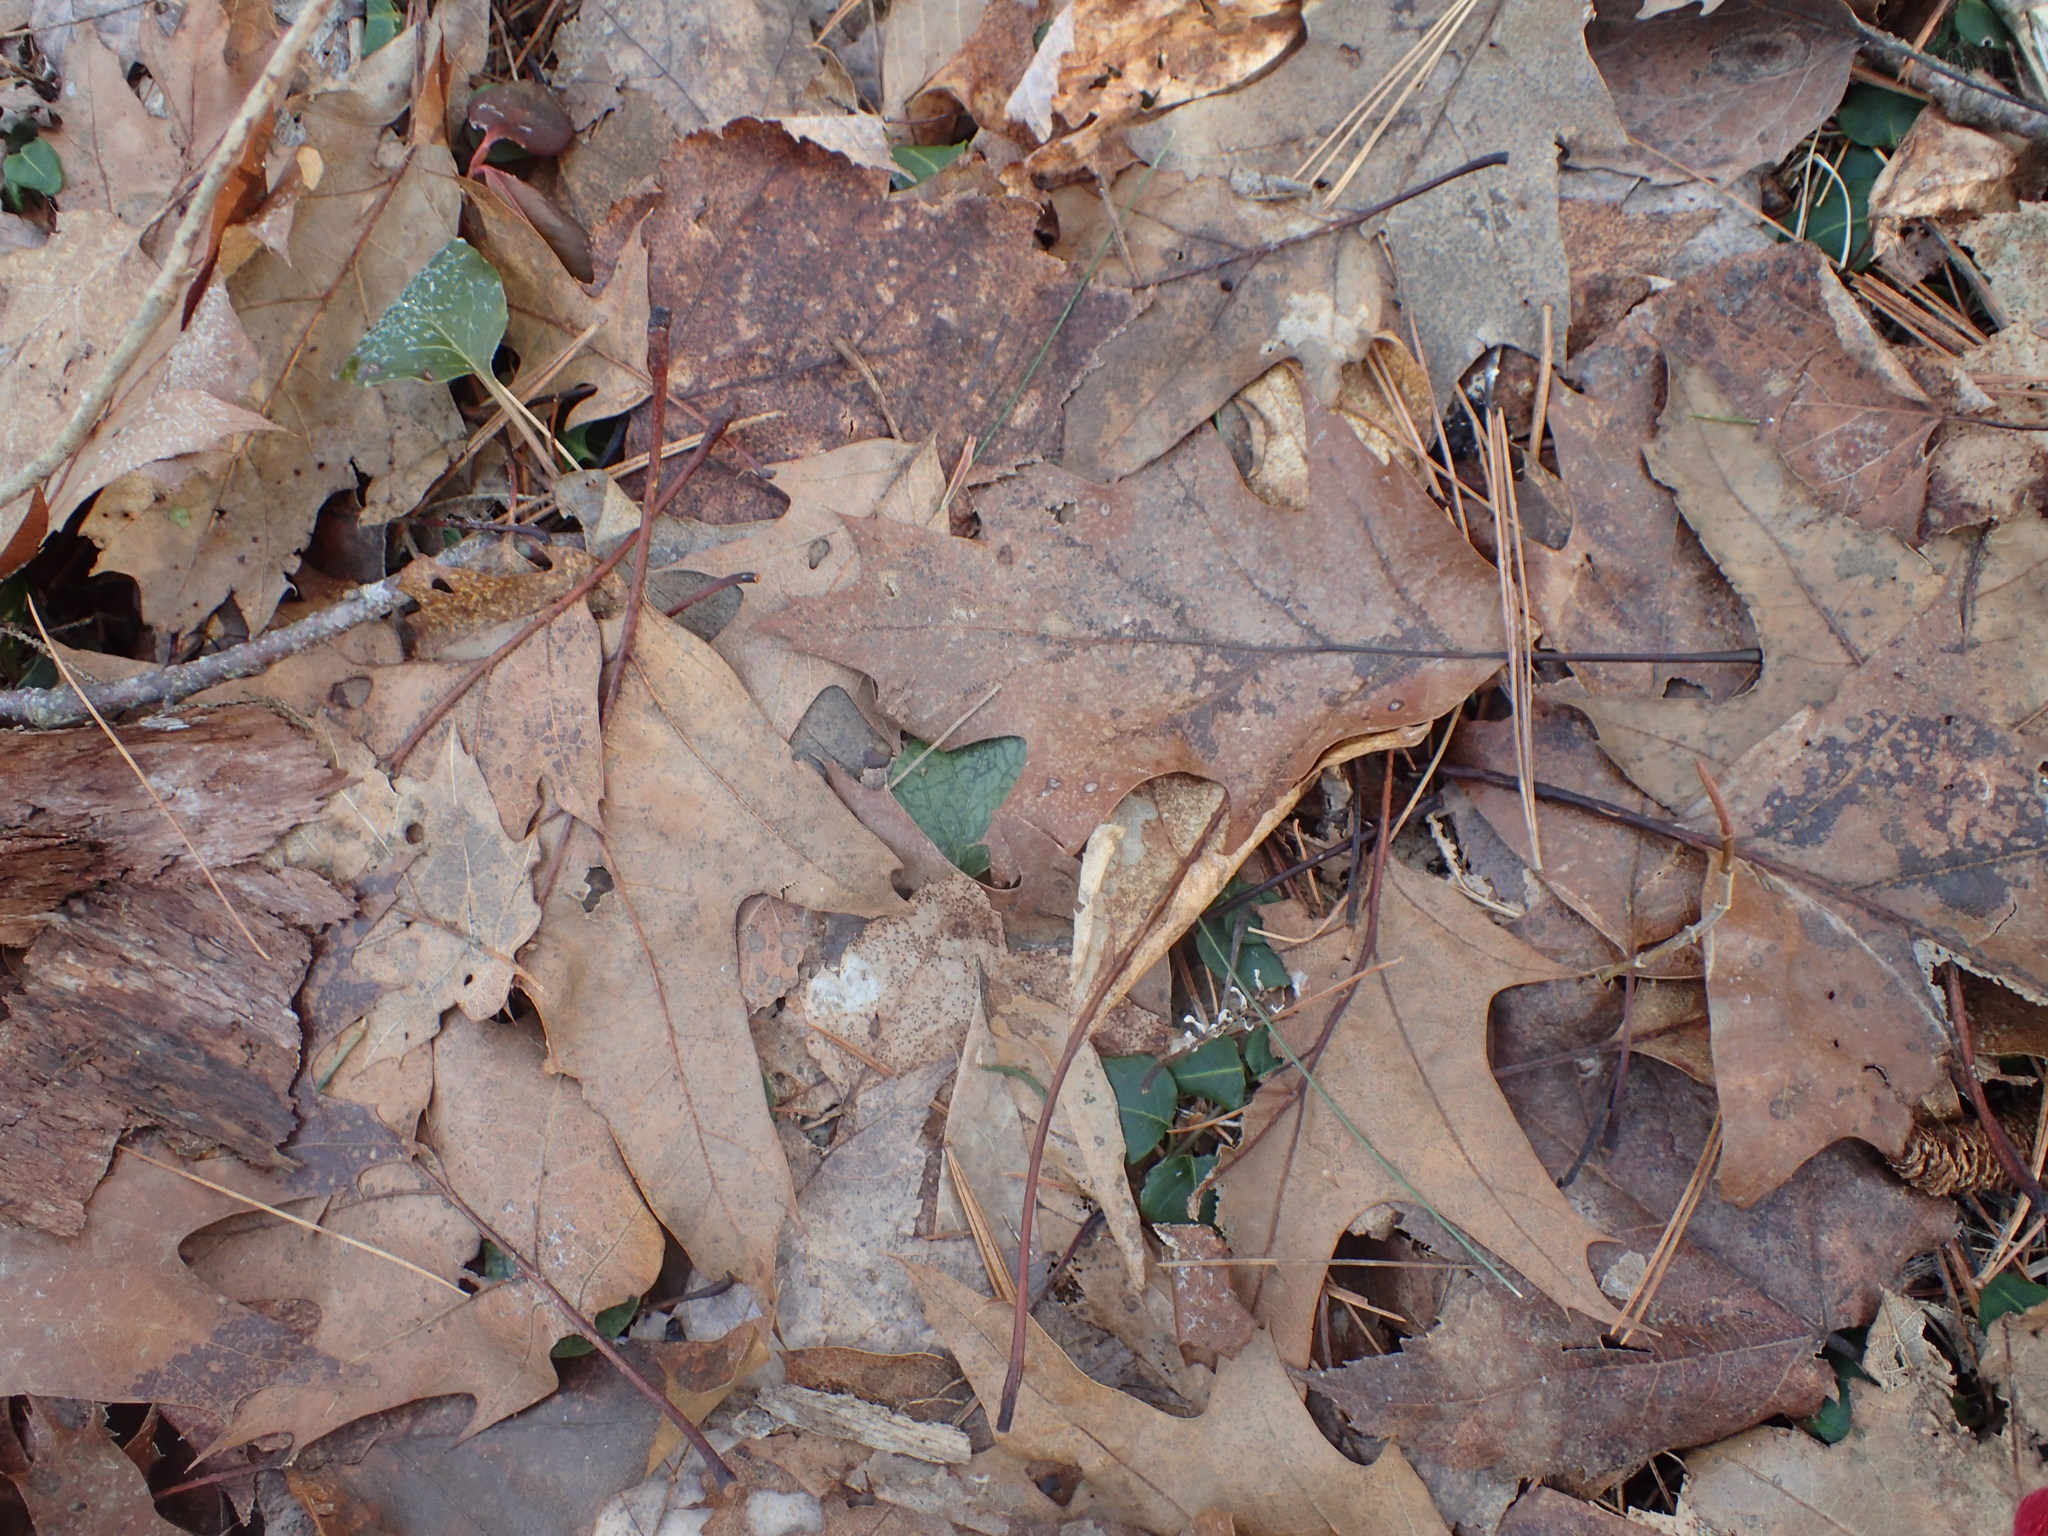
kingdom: Plantae
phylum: Tracheophyta
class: Magnoliopsida
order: Fagales
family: Fagaceae
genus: Quercus
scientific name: Quercus rubra
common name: Red oak
